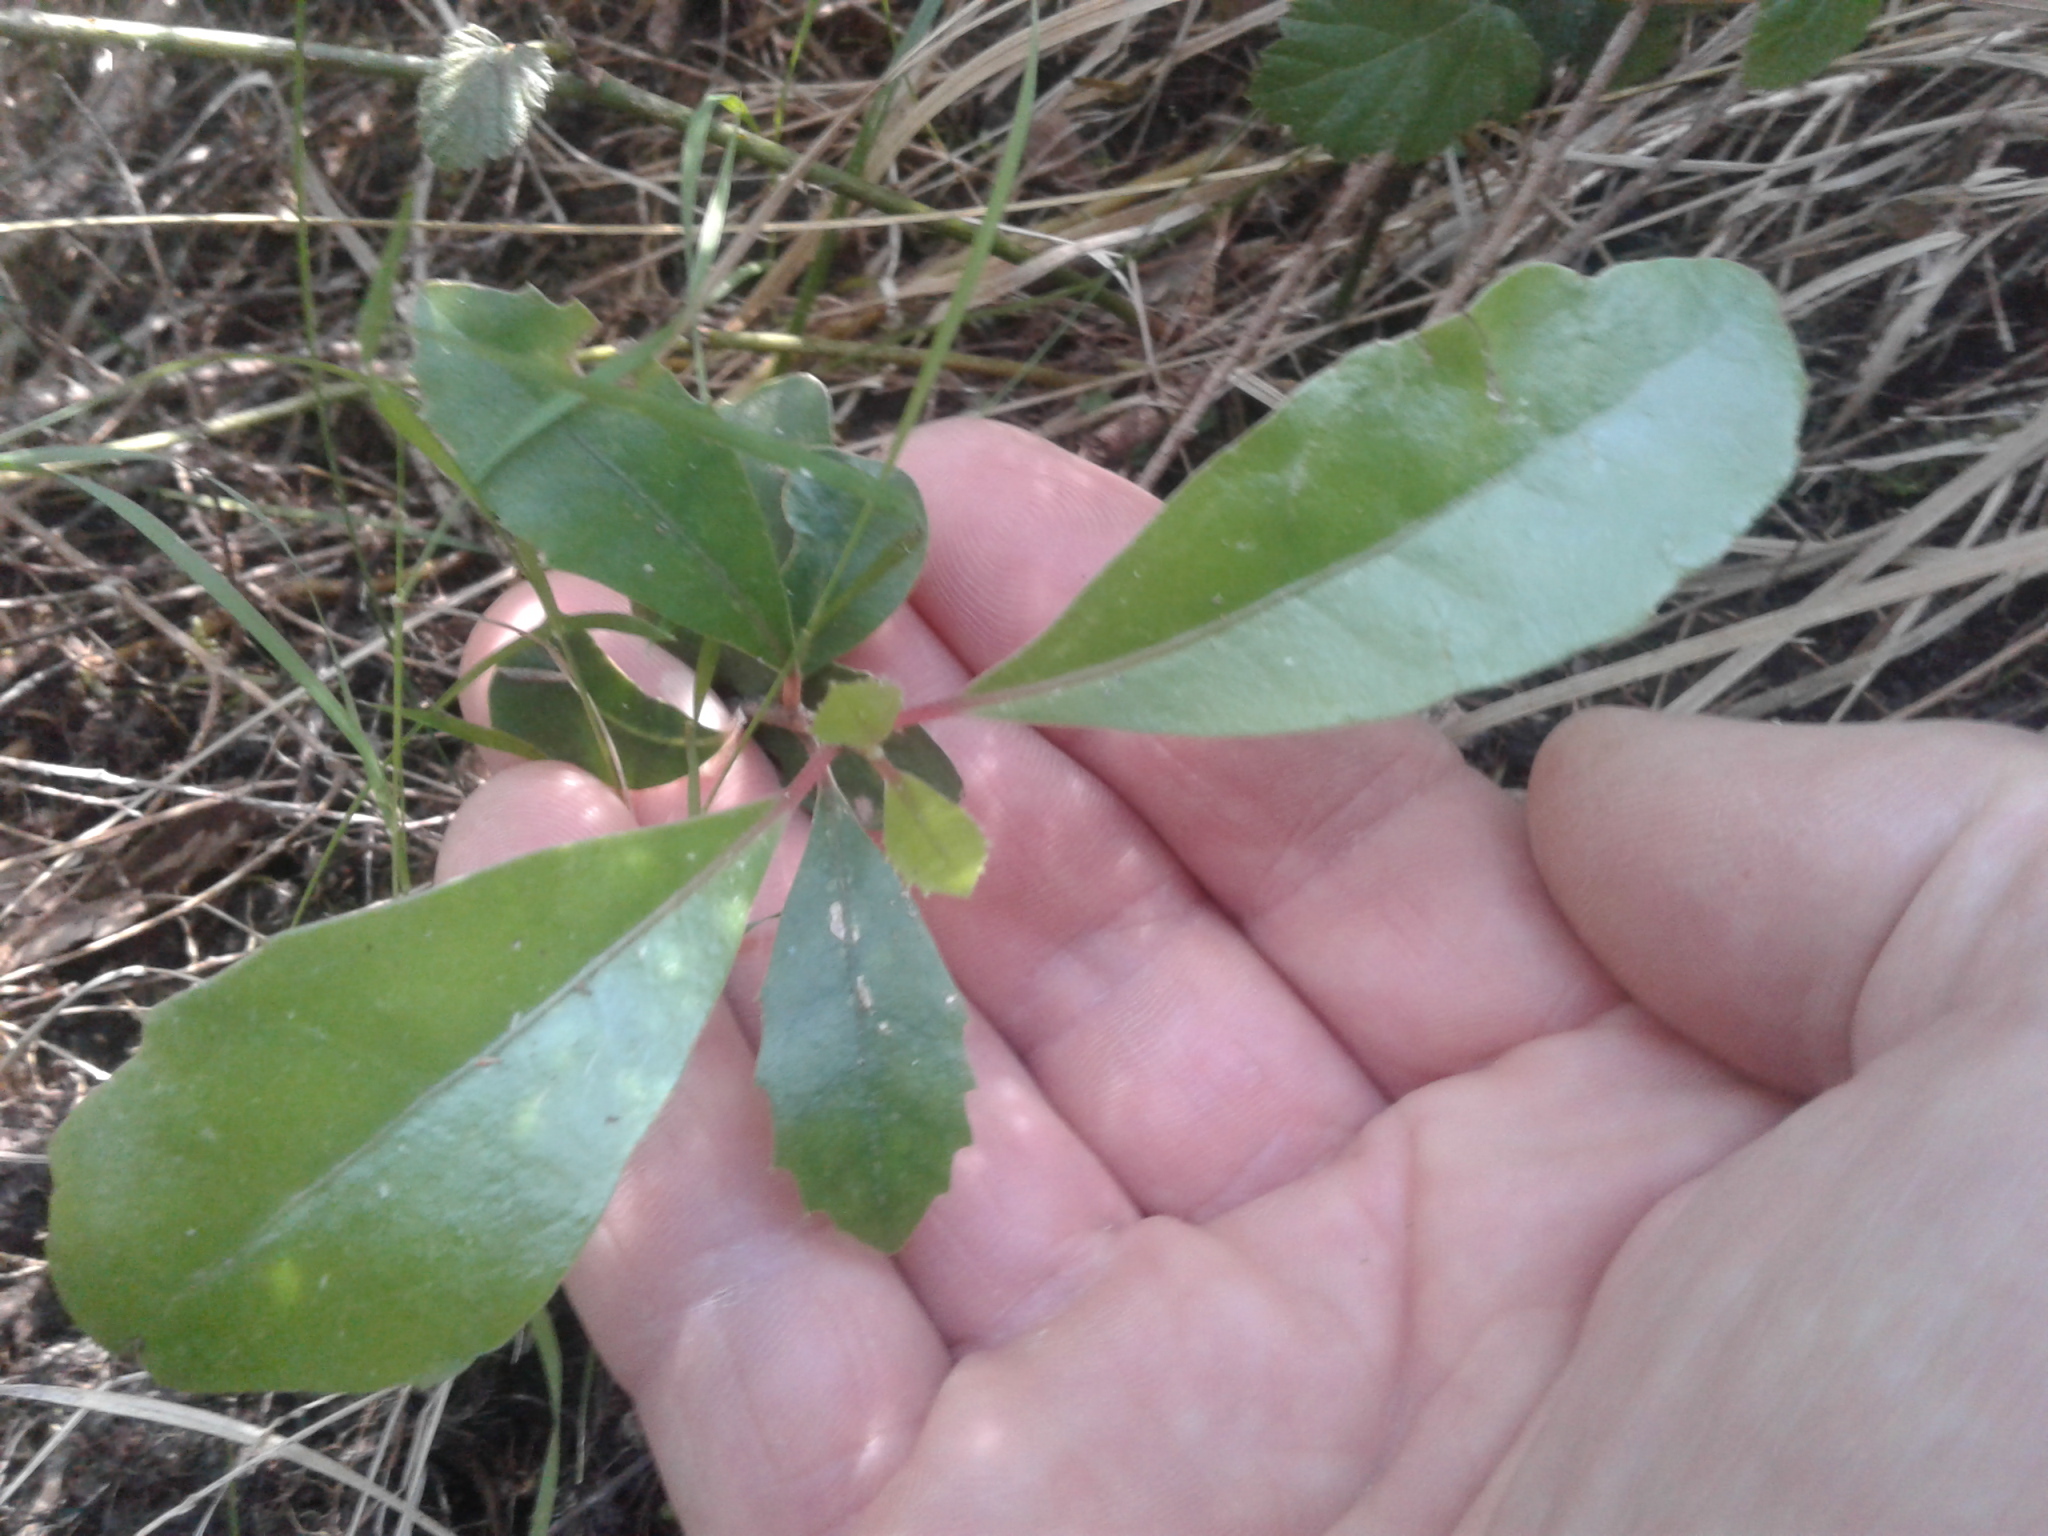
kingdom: Plantae
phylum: Tracheophyta
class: Magnoliopsida
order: Laurales
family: Monimiaceae
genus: Hedycarya
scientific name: Hedycarya arborea
